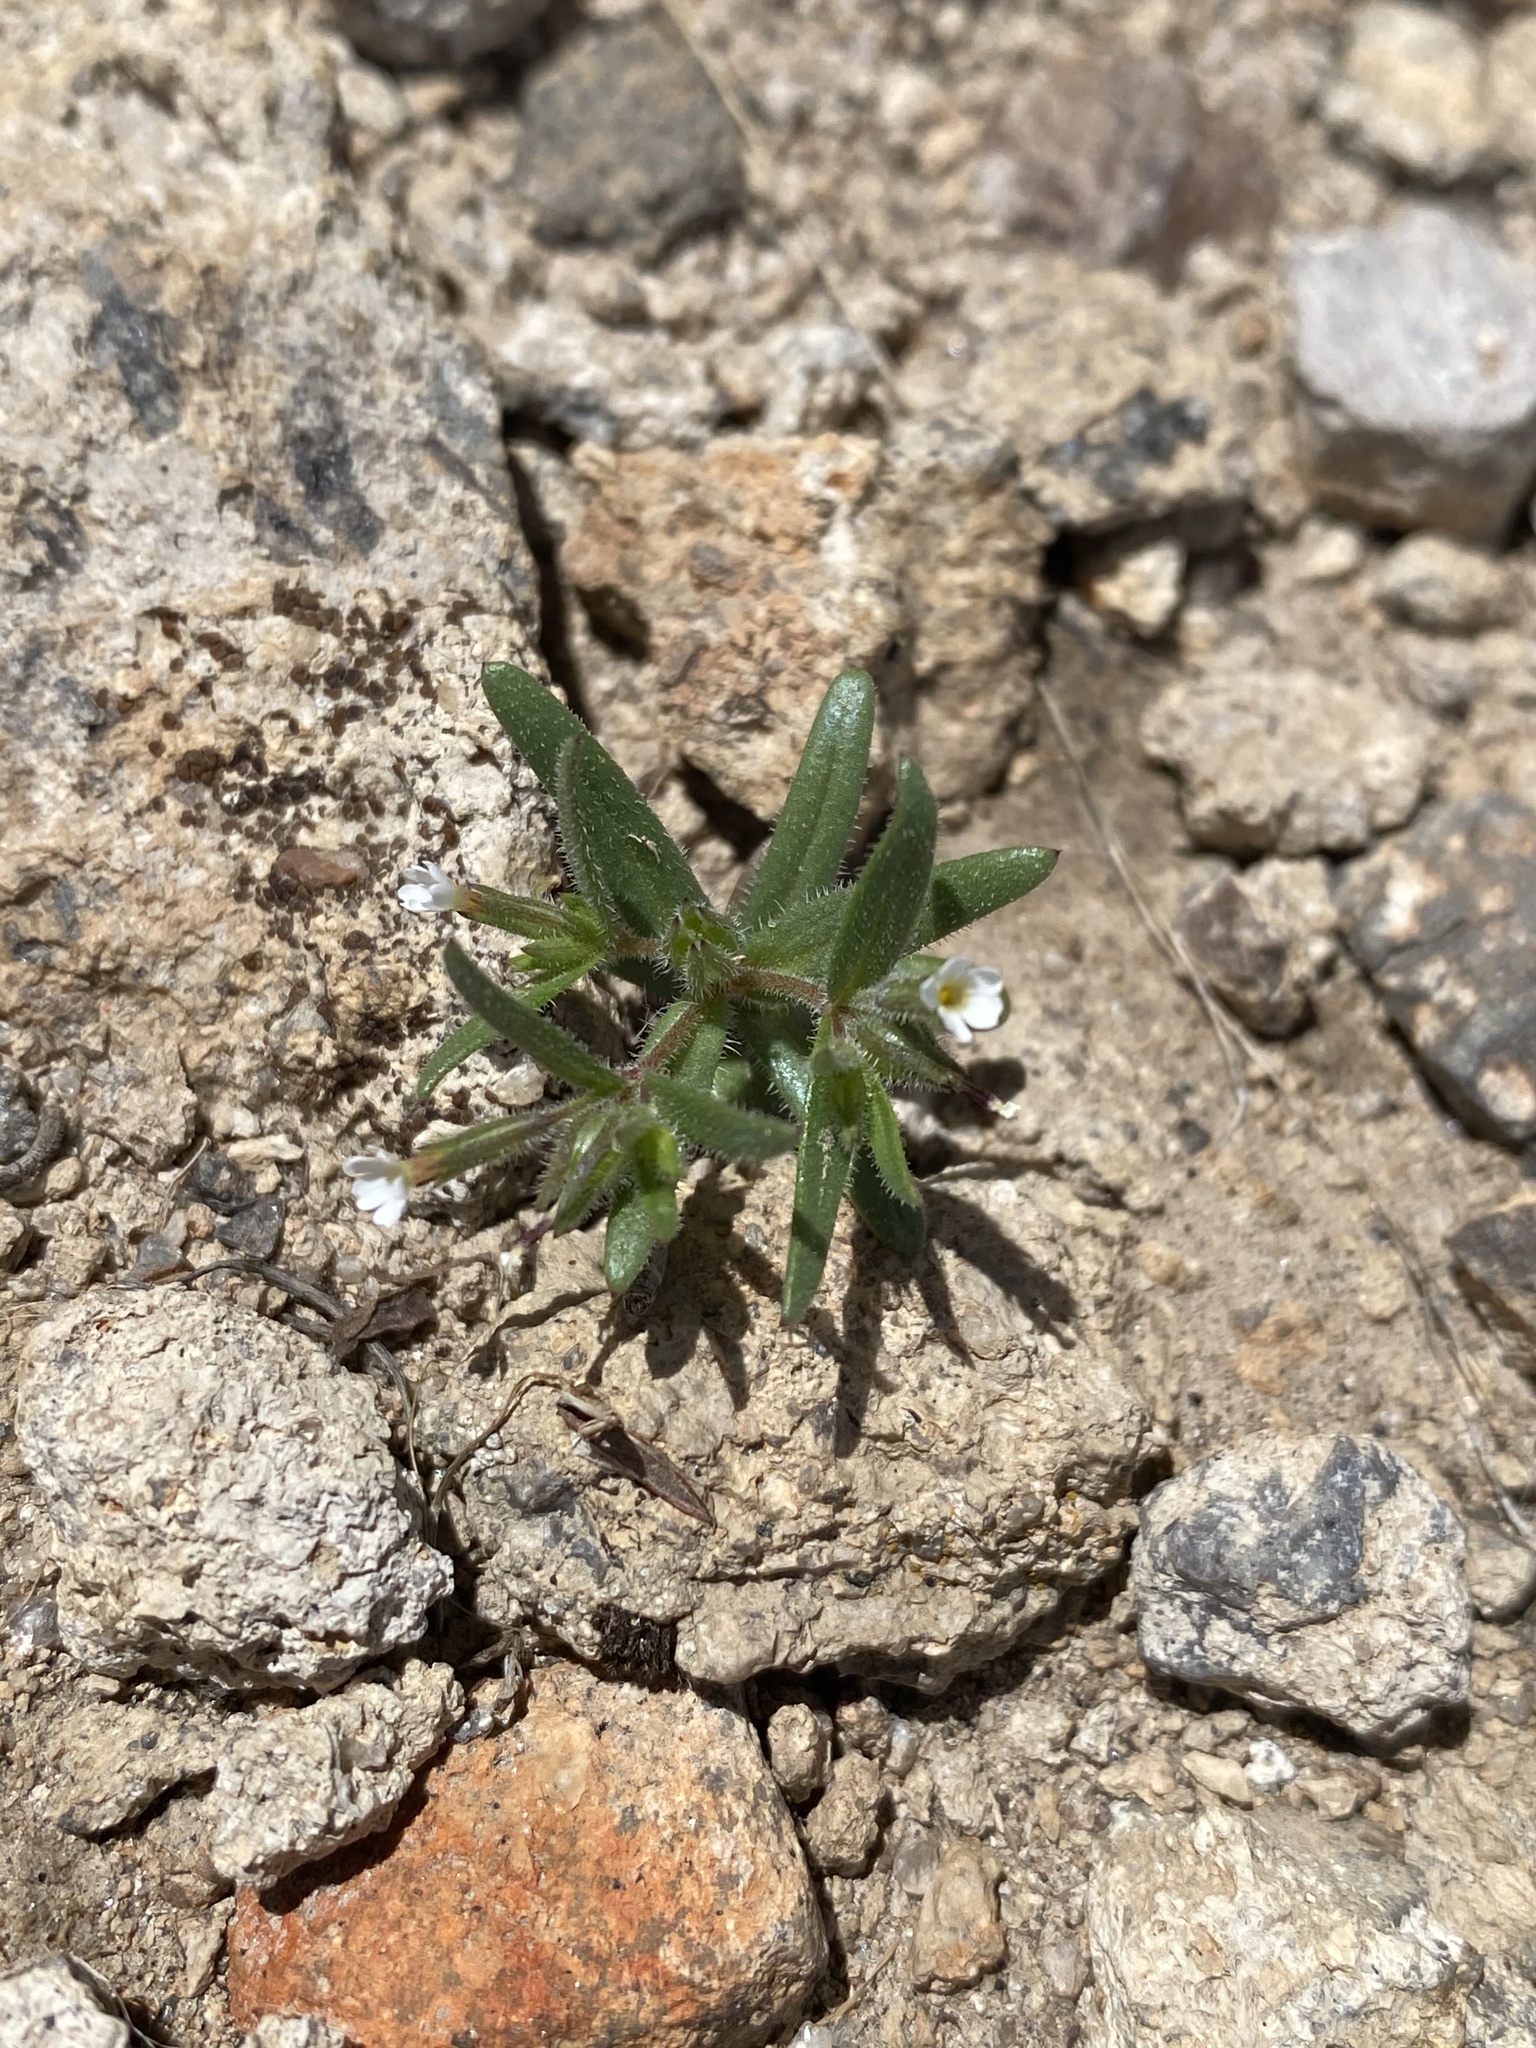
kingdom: Plantae
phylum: Tracheophyta
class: Magnoliopsida
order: Ericales
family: Polemoniaceae
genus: Phlox
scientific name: Phlox gracilis
